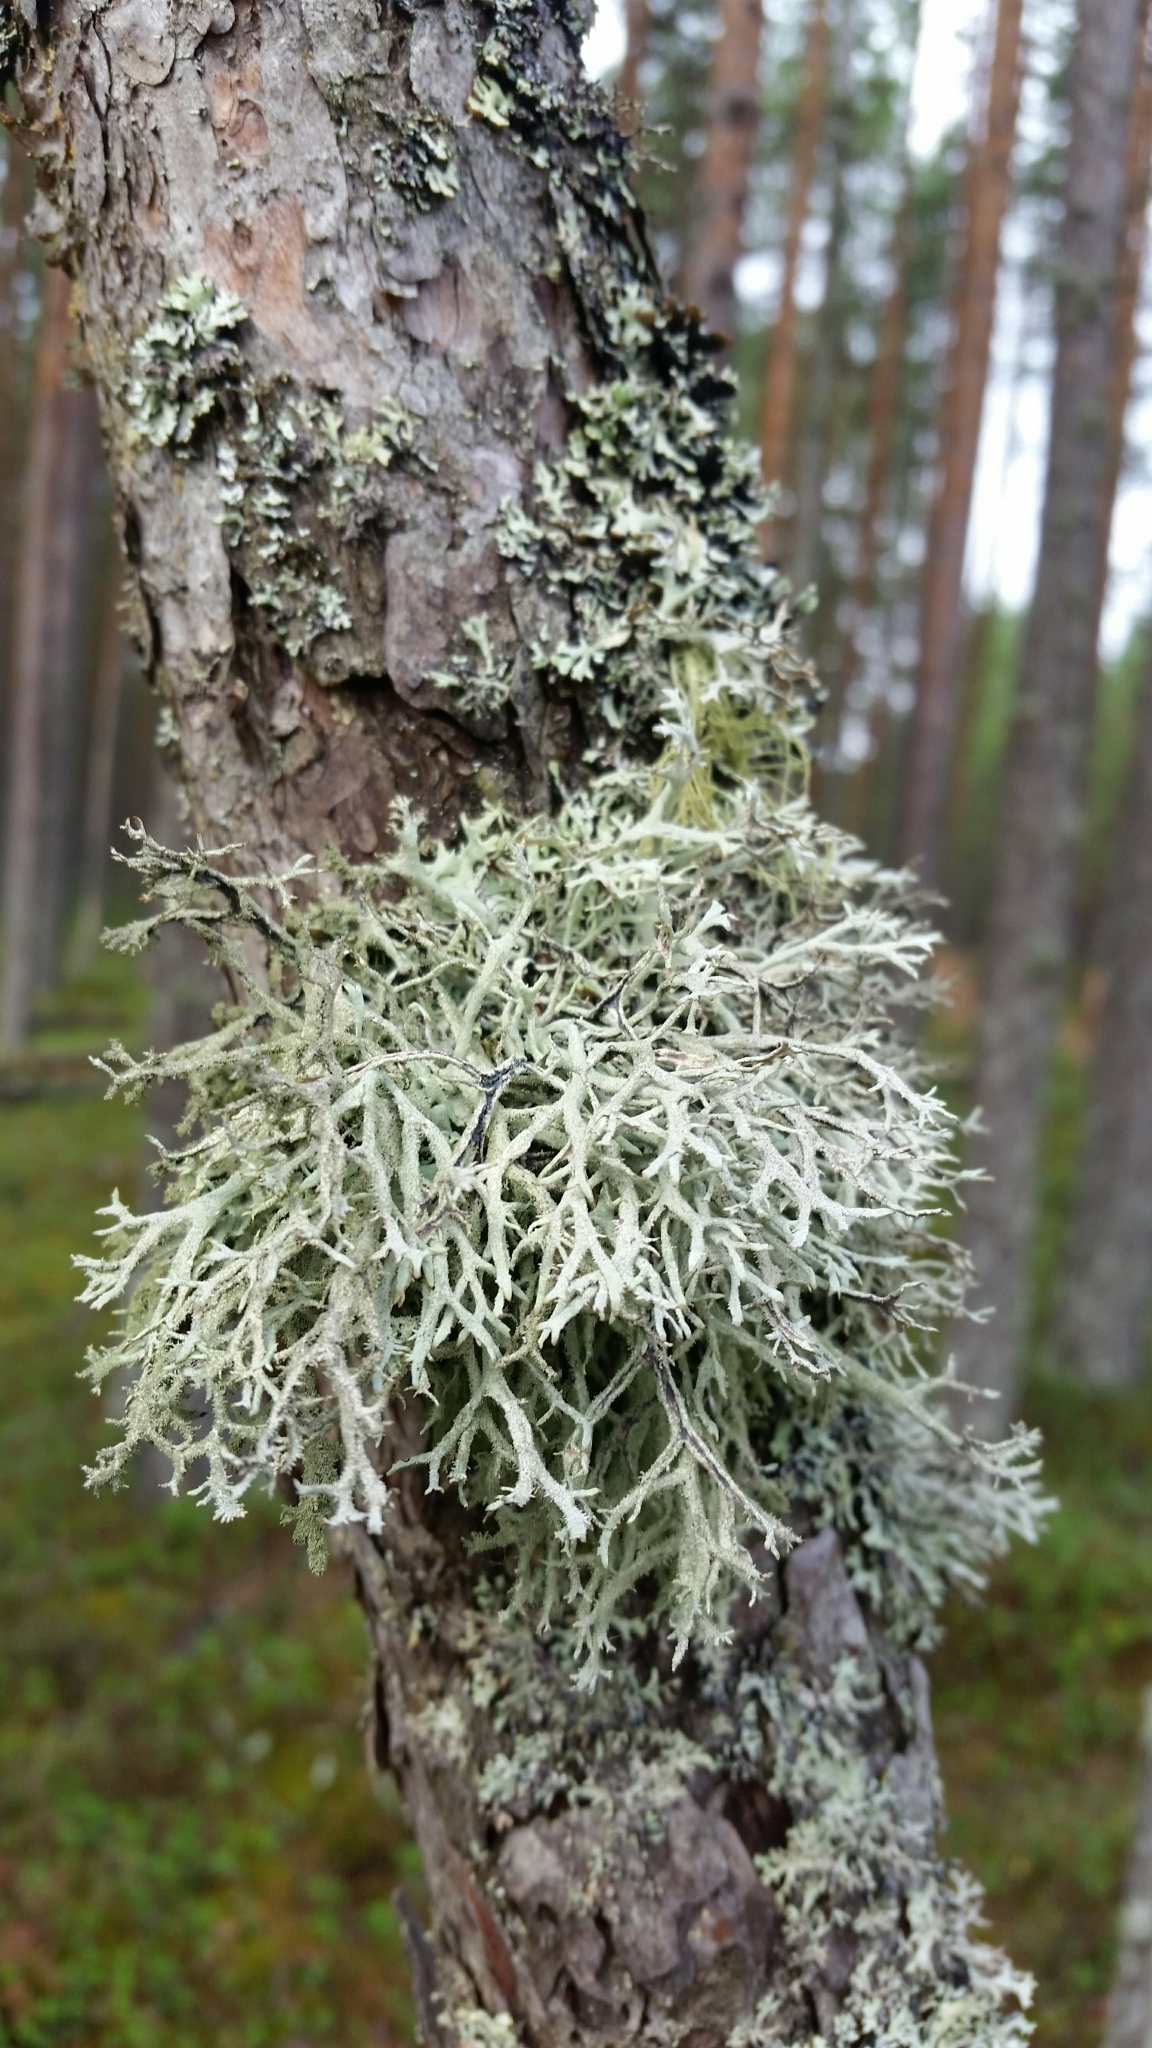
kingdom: Fungi
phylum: Ascomycota
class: Lecanoromycetes
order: Lecanorales
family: Parmeliaceae
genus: Pseudevernia
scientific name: Pseudevernia furfuracea
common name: Tree moss
